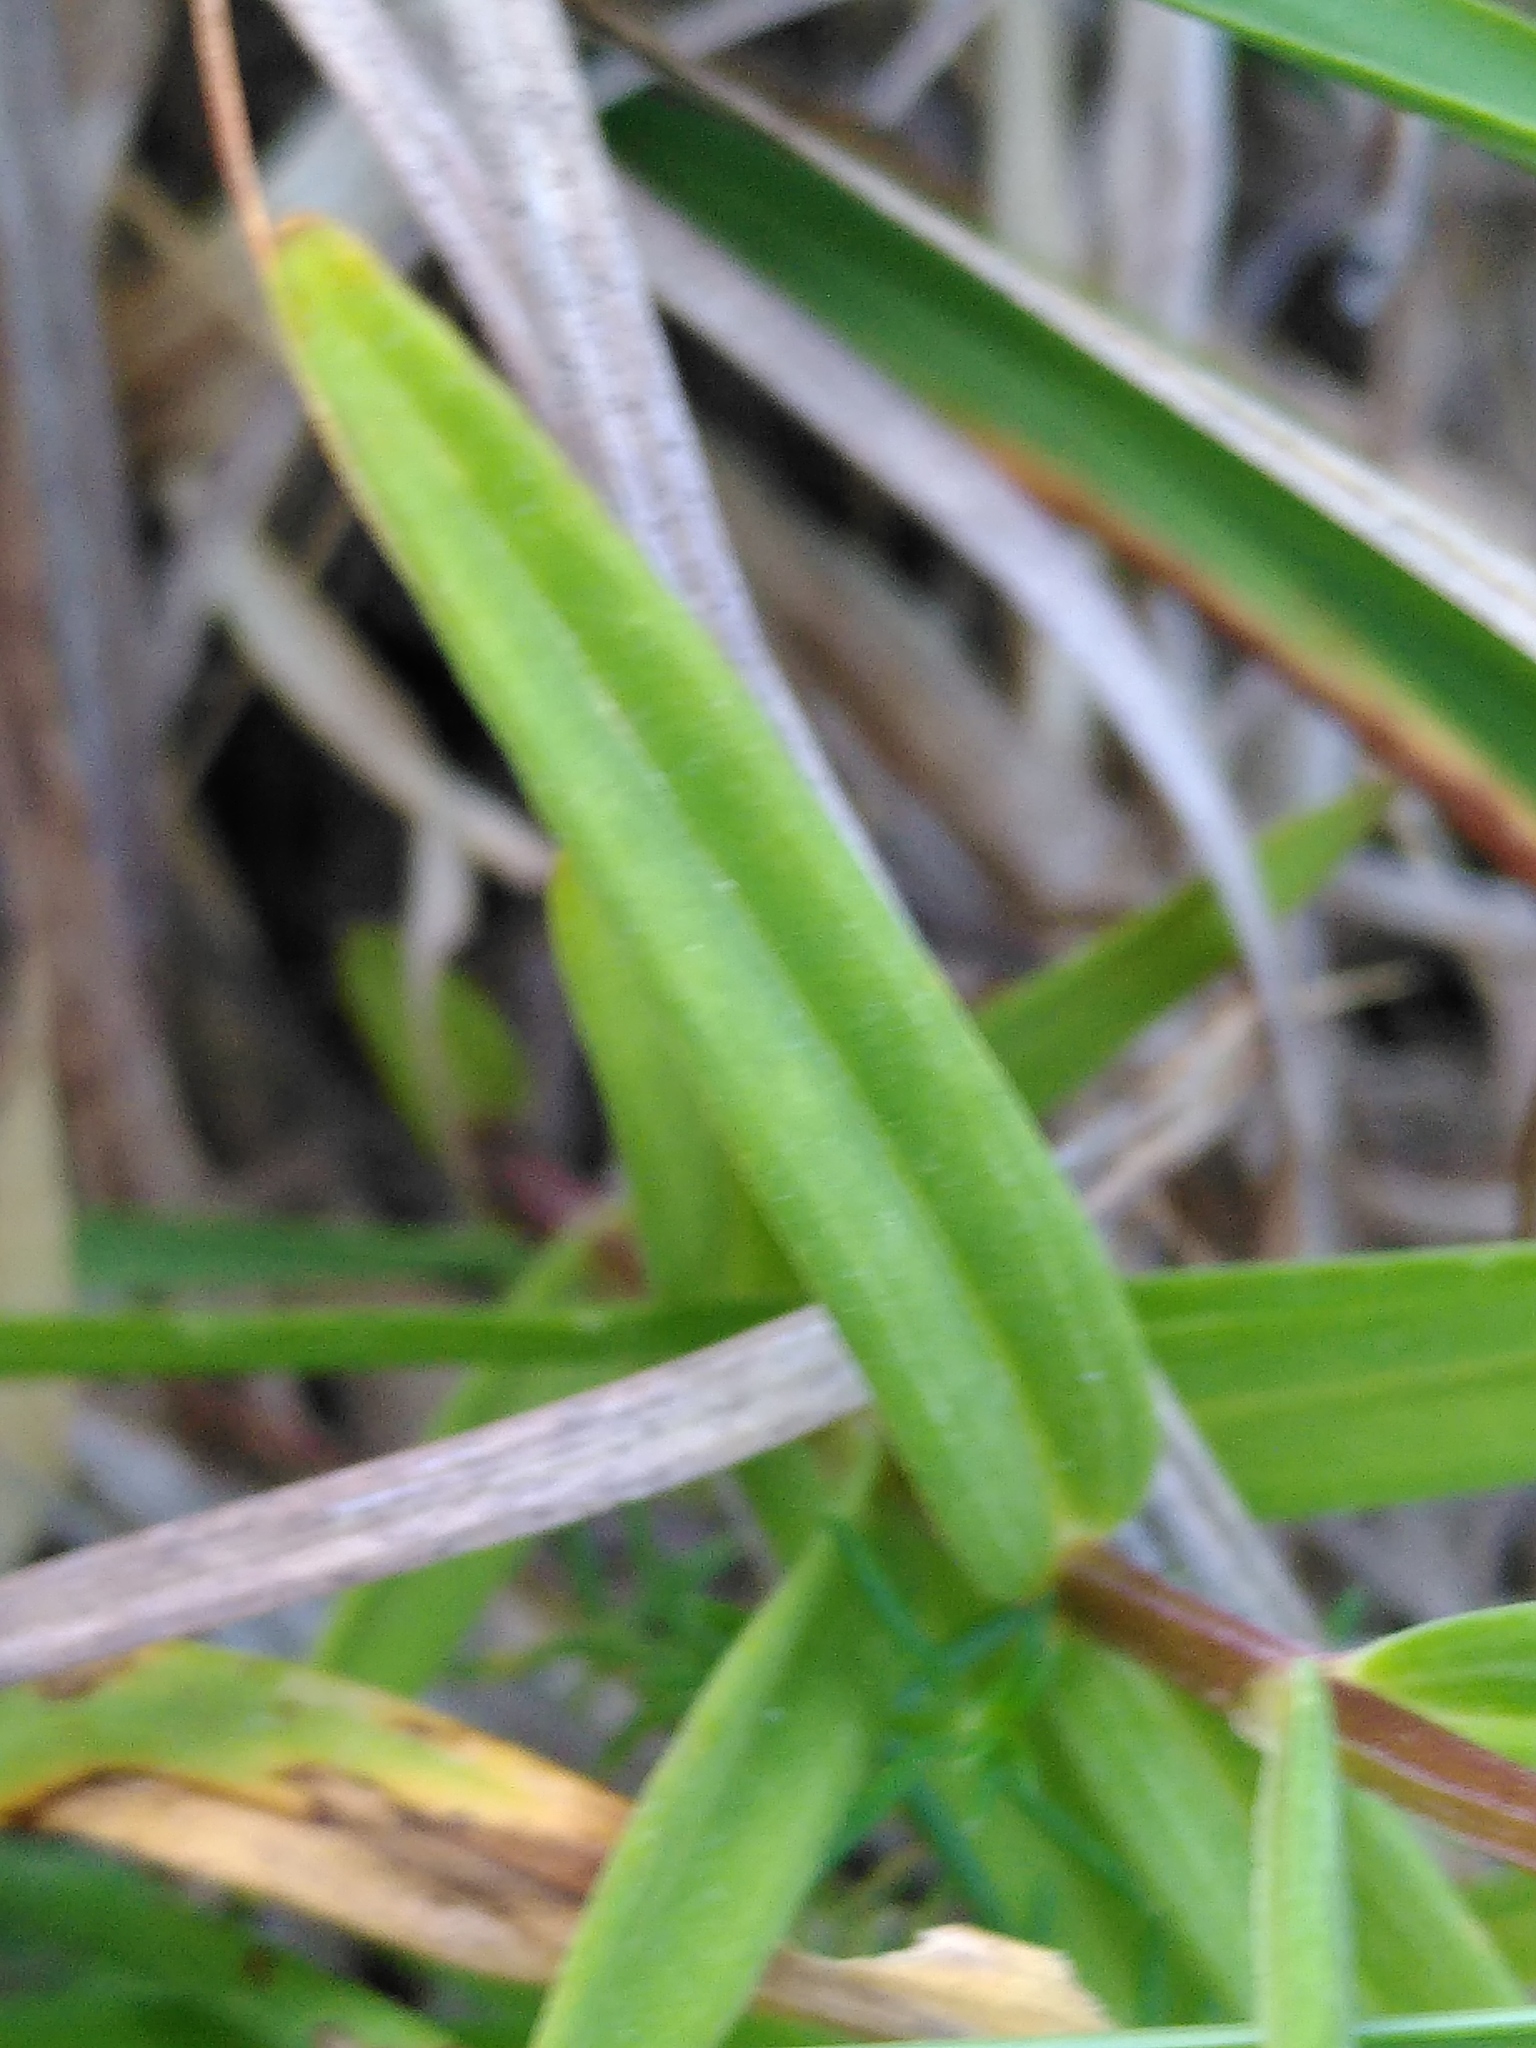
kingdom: Plantae
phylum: Tracheophyta
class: Magnoliopsida
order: Gentianales
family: Gentianaceae
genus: Gentiana
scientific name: Gentiana pneumonanthe
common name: Marsh gentian
